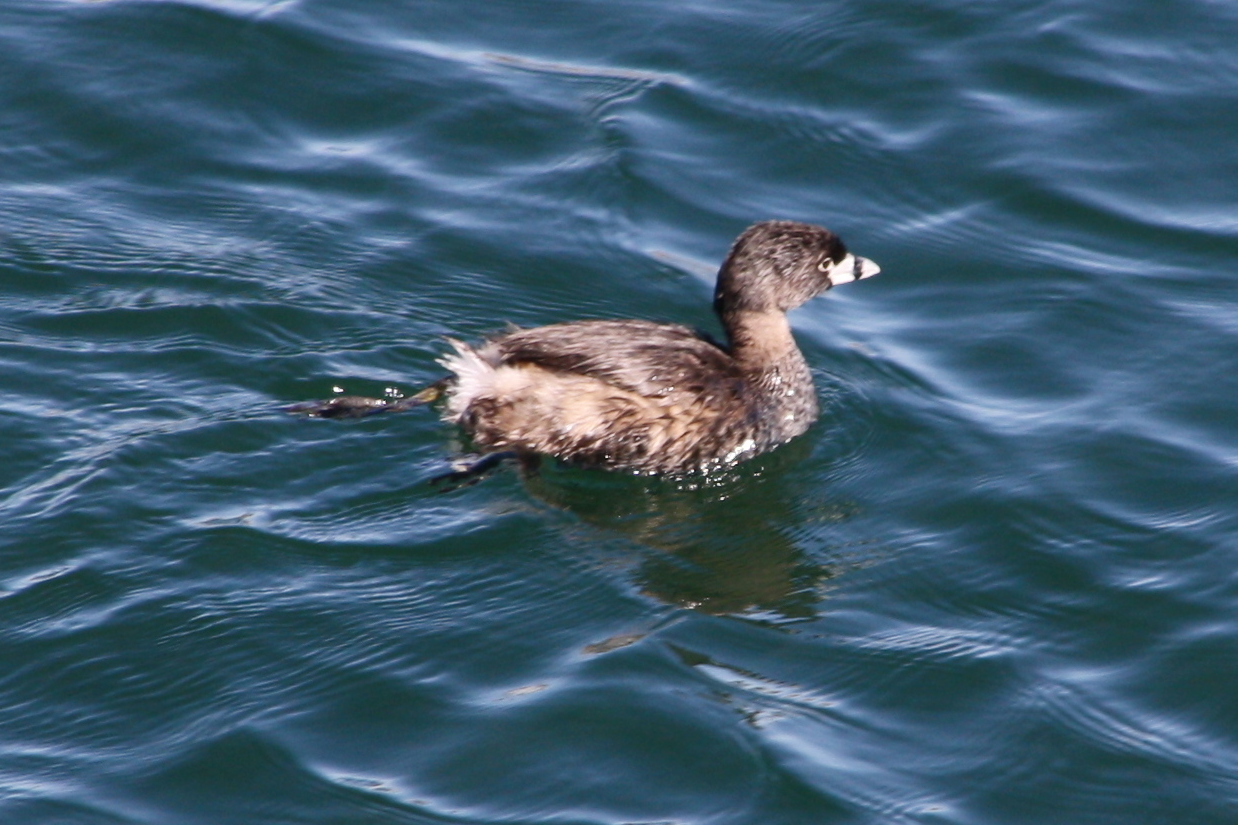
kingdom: Animalia
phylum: Chordata
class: Aves
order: Podicipediformes
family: Podicipedidae
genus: Podilymbus
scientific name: Podilymbus podiceps
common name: Pied-billed grebe
